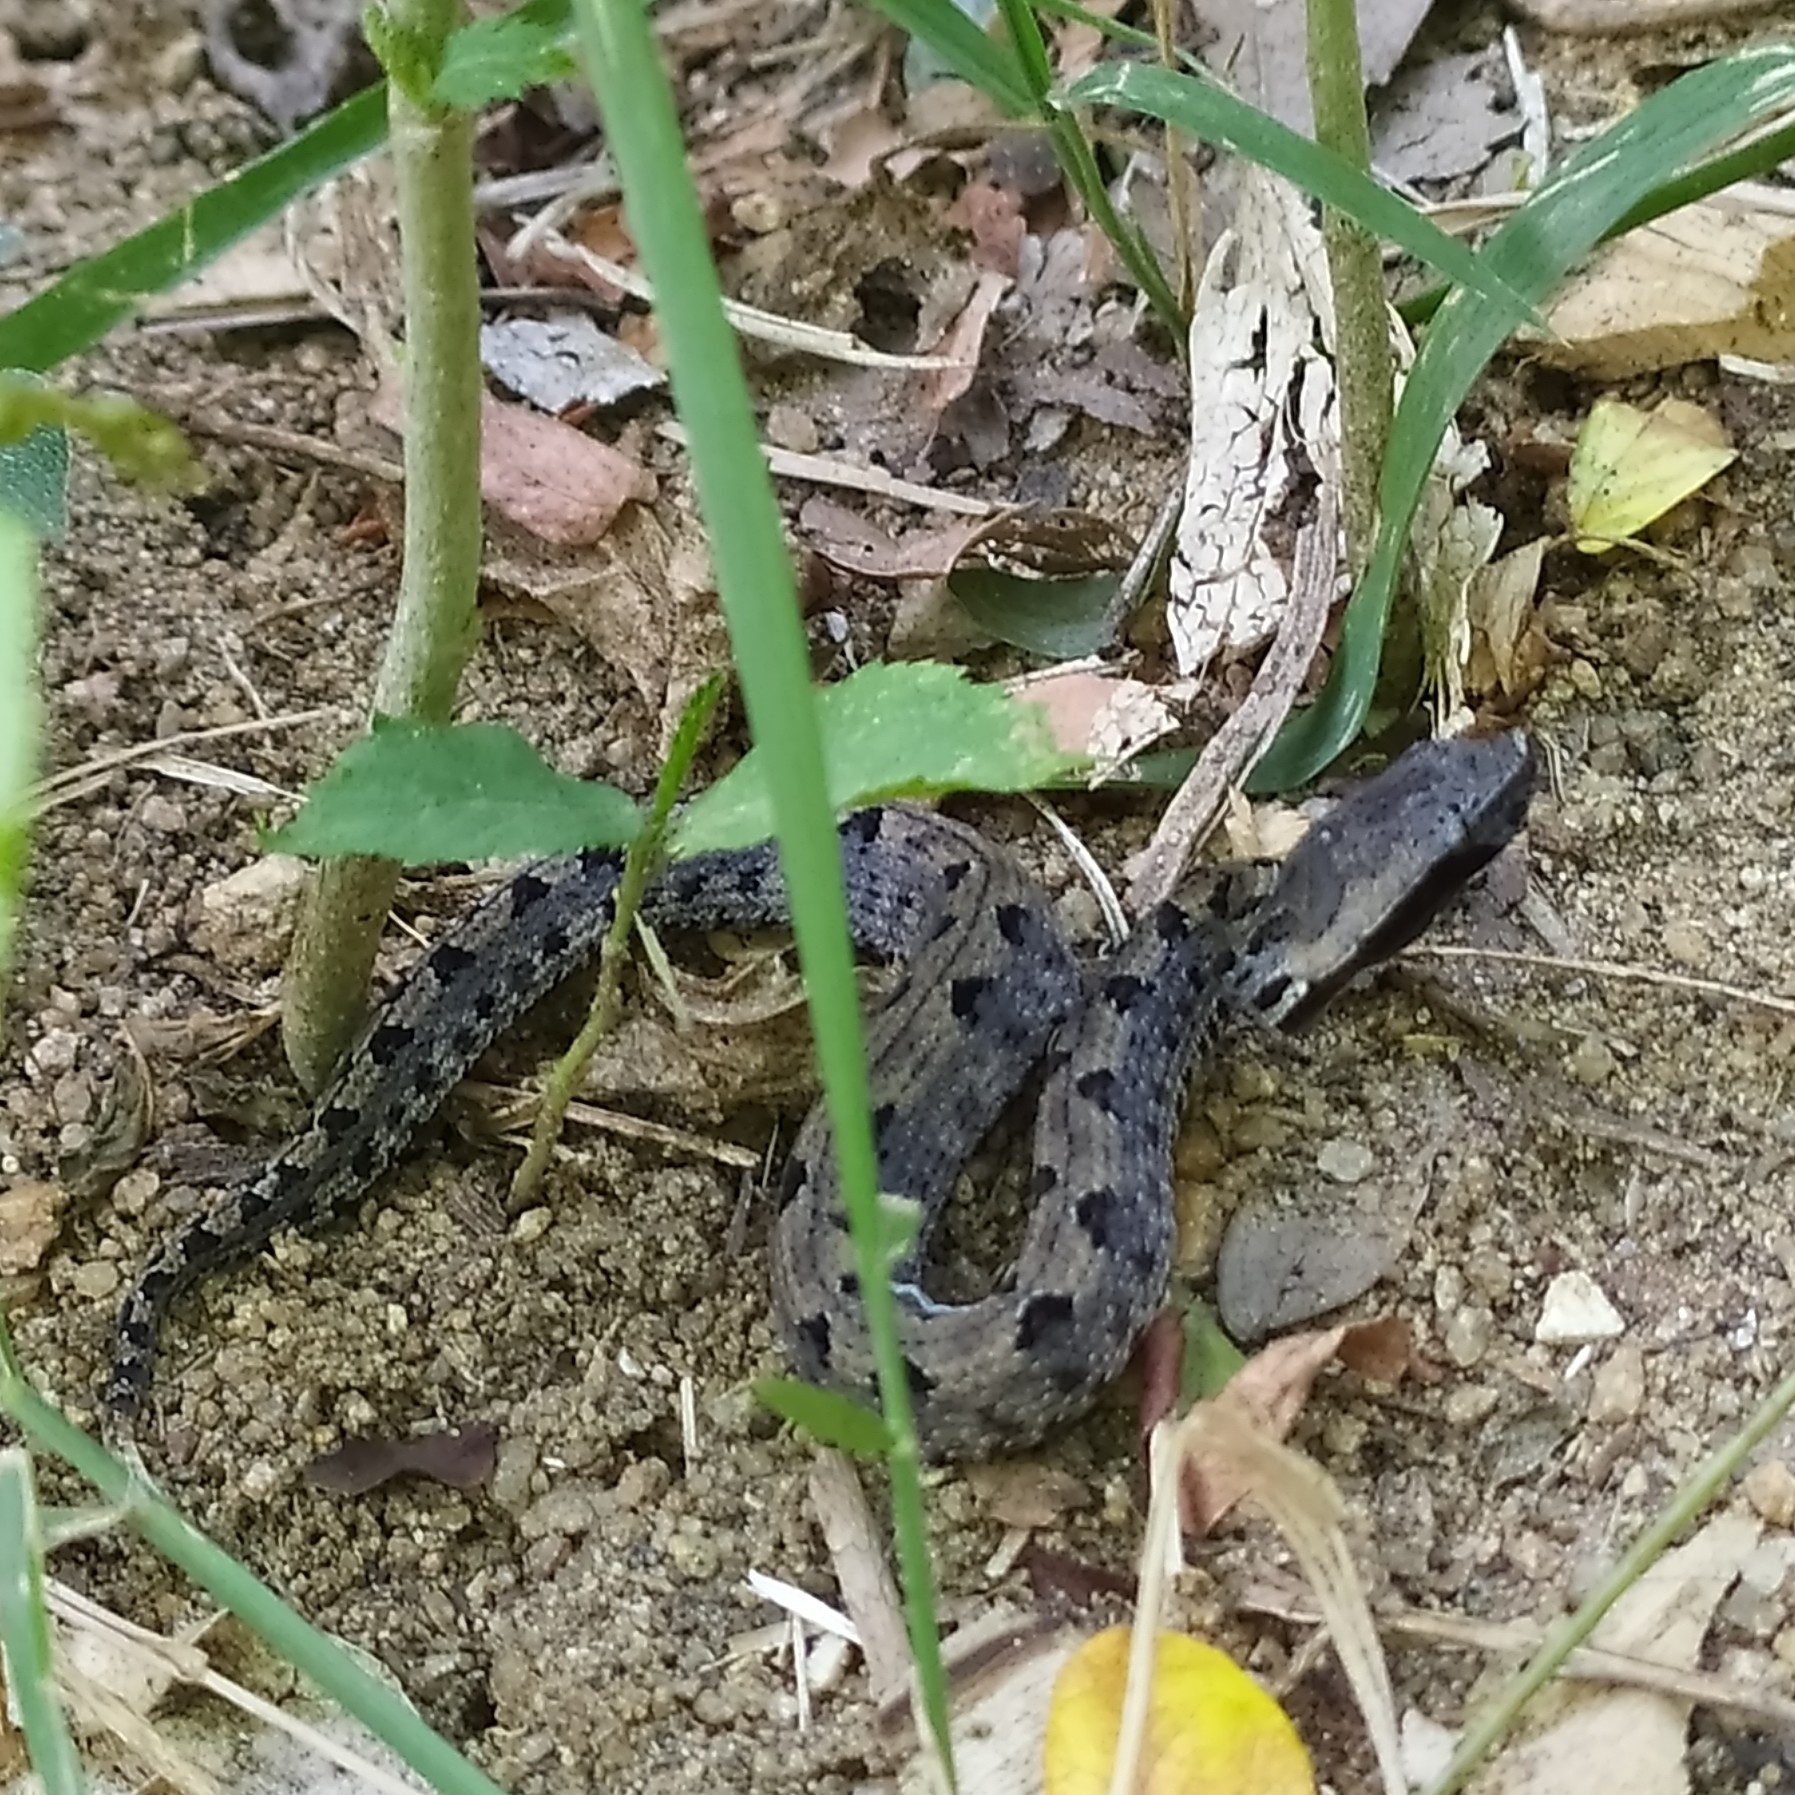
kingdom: Animalia
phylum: Chordata
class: Squamata
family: Viperidae
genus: Hypnale
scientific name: Hypnale hypnale
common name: Hump-nosed moccasin
